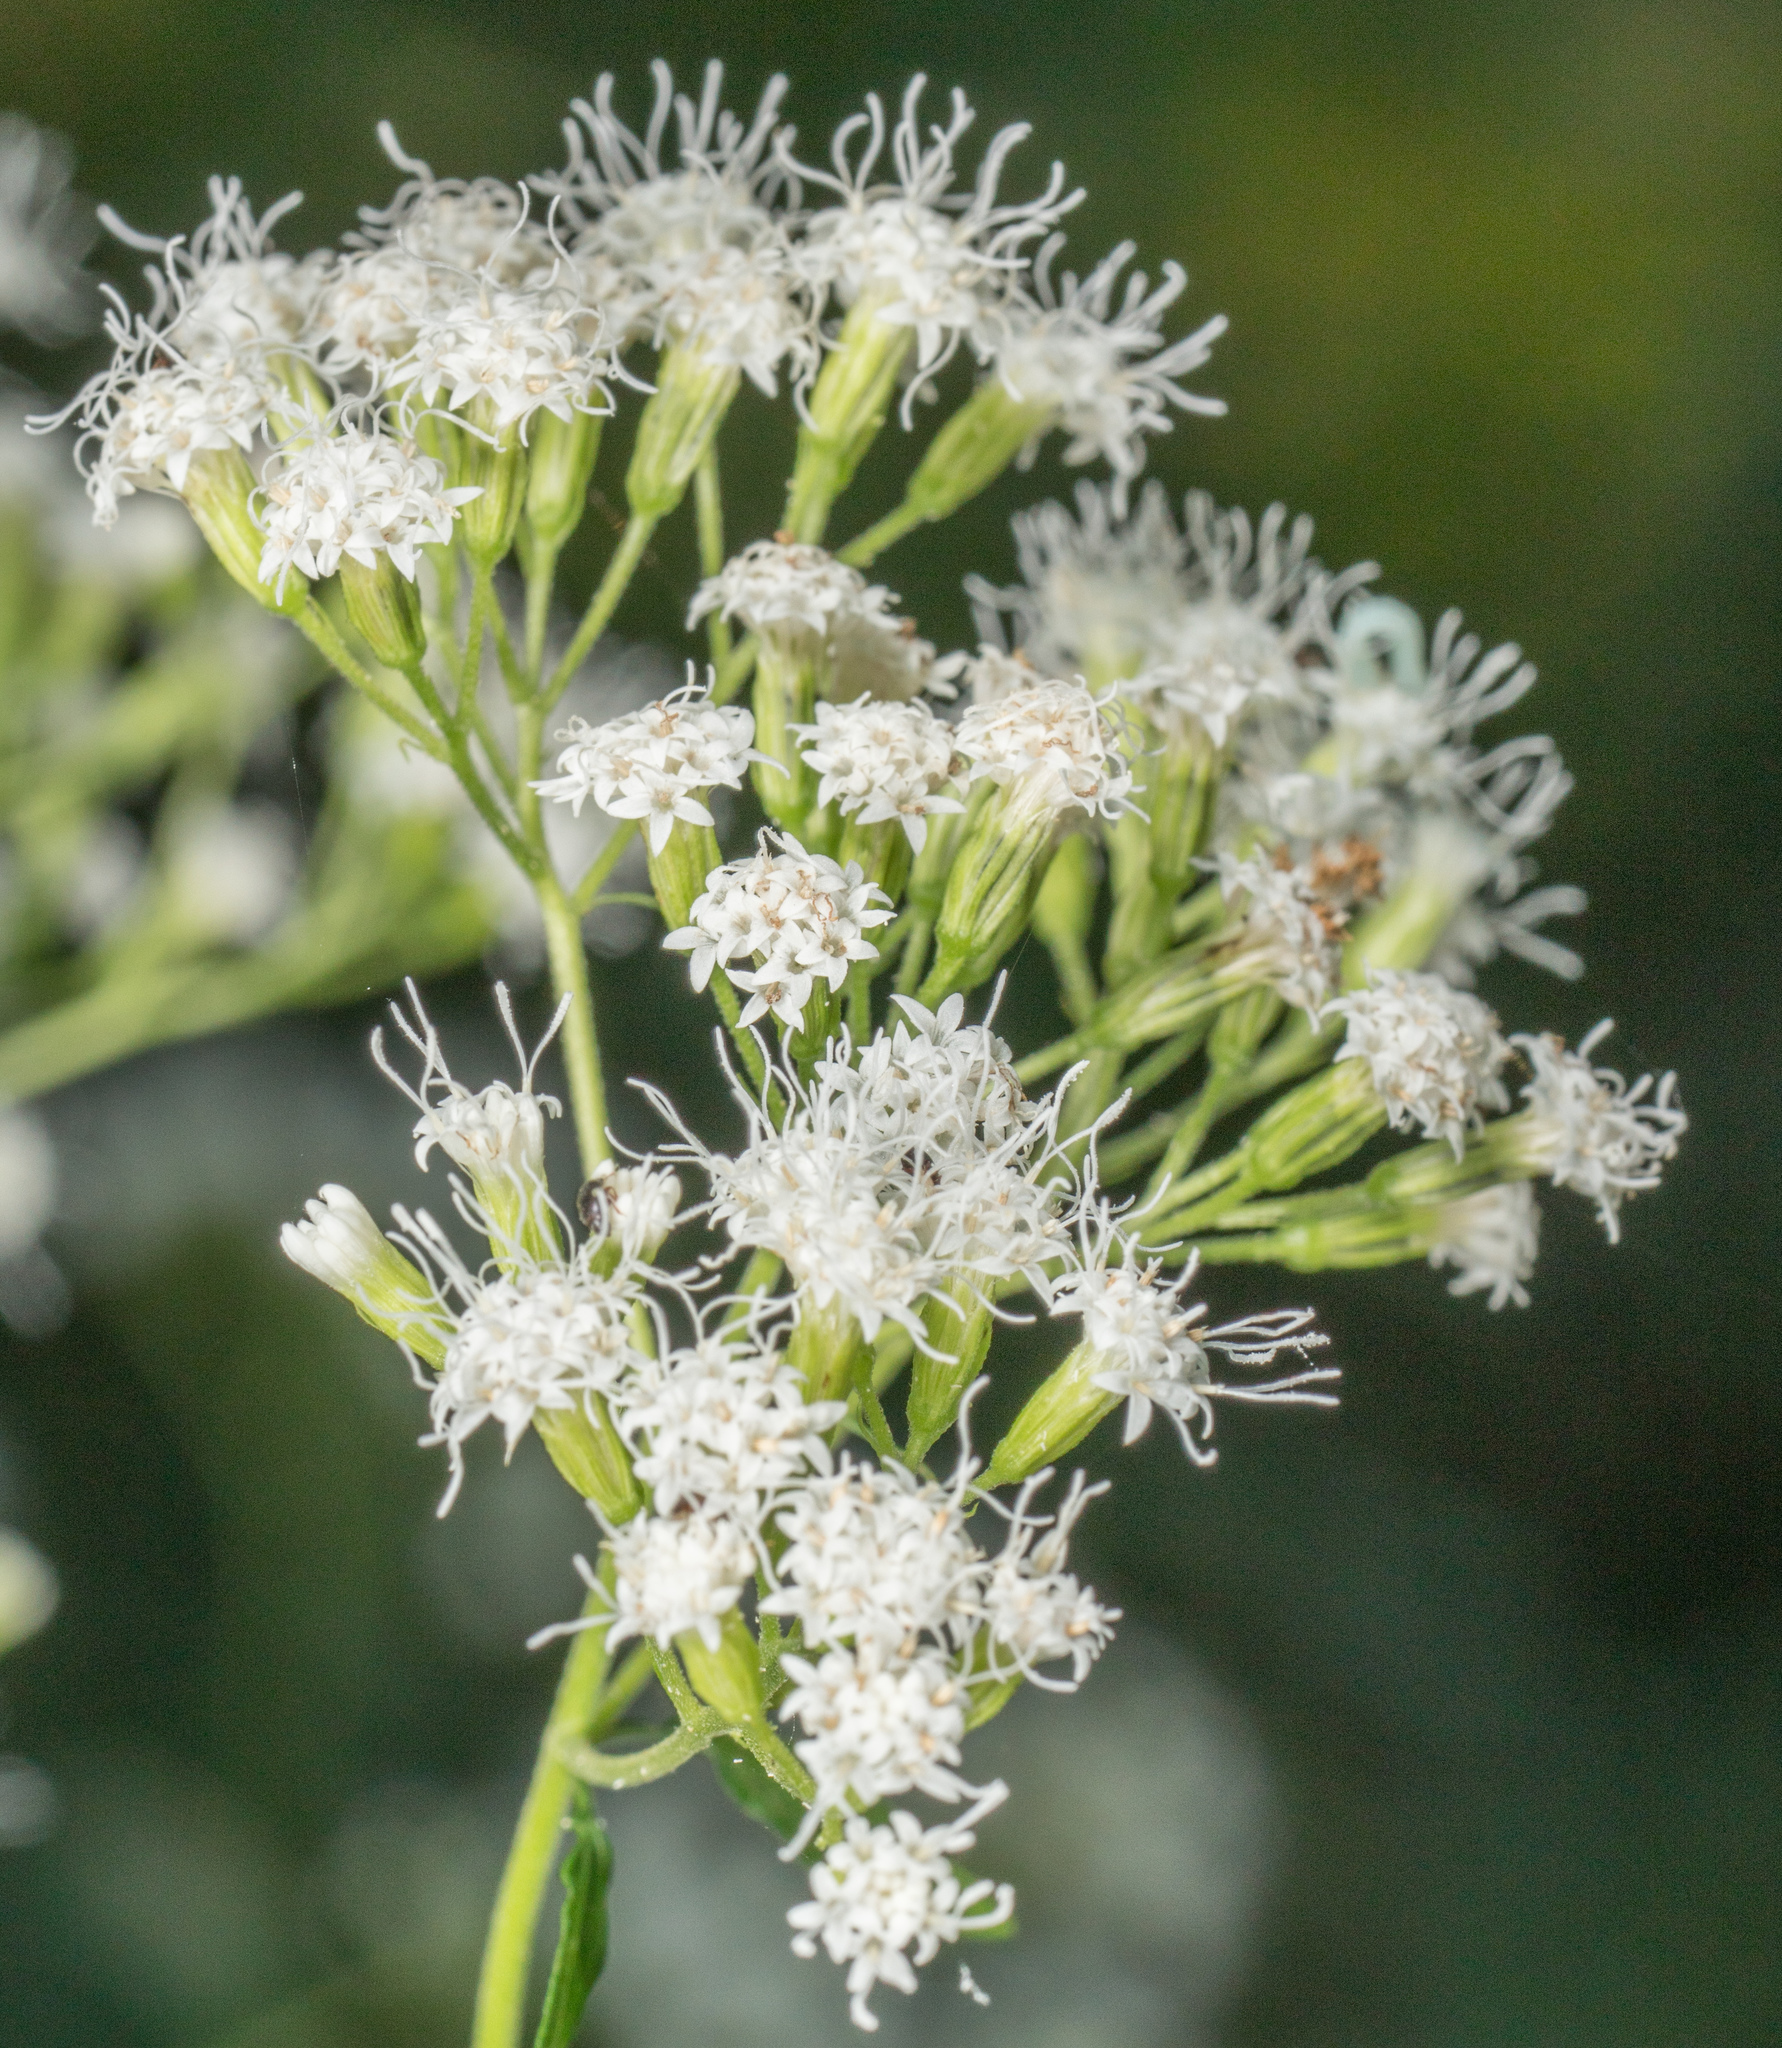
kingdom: Plantae
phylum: Tracheophyta
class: Magnoliopsida
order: Asterales
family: Asteraceae
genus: Ageratina
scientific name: Ageratina altissima
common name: White snakeroot
